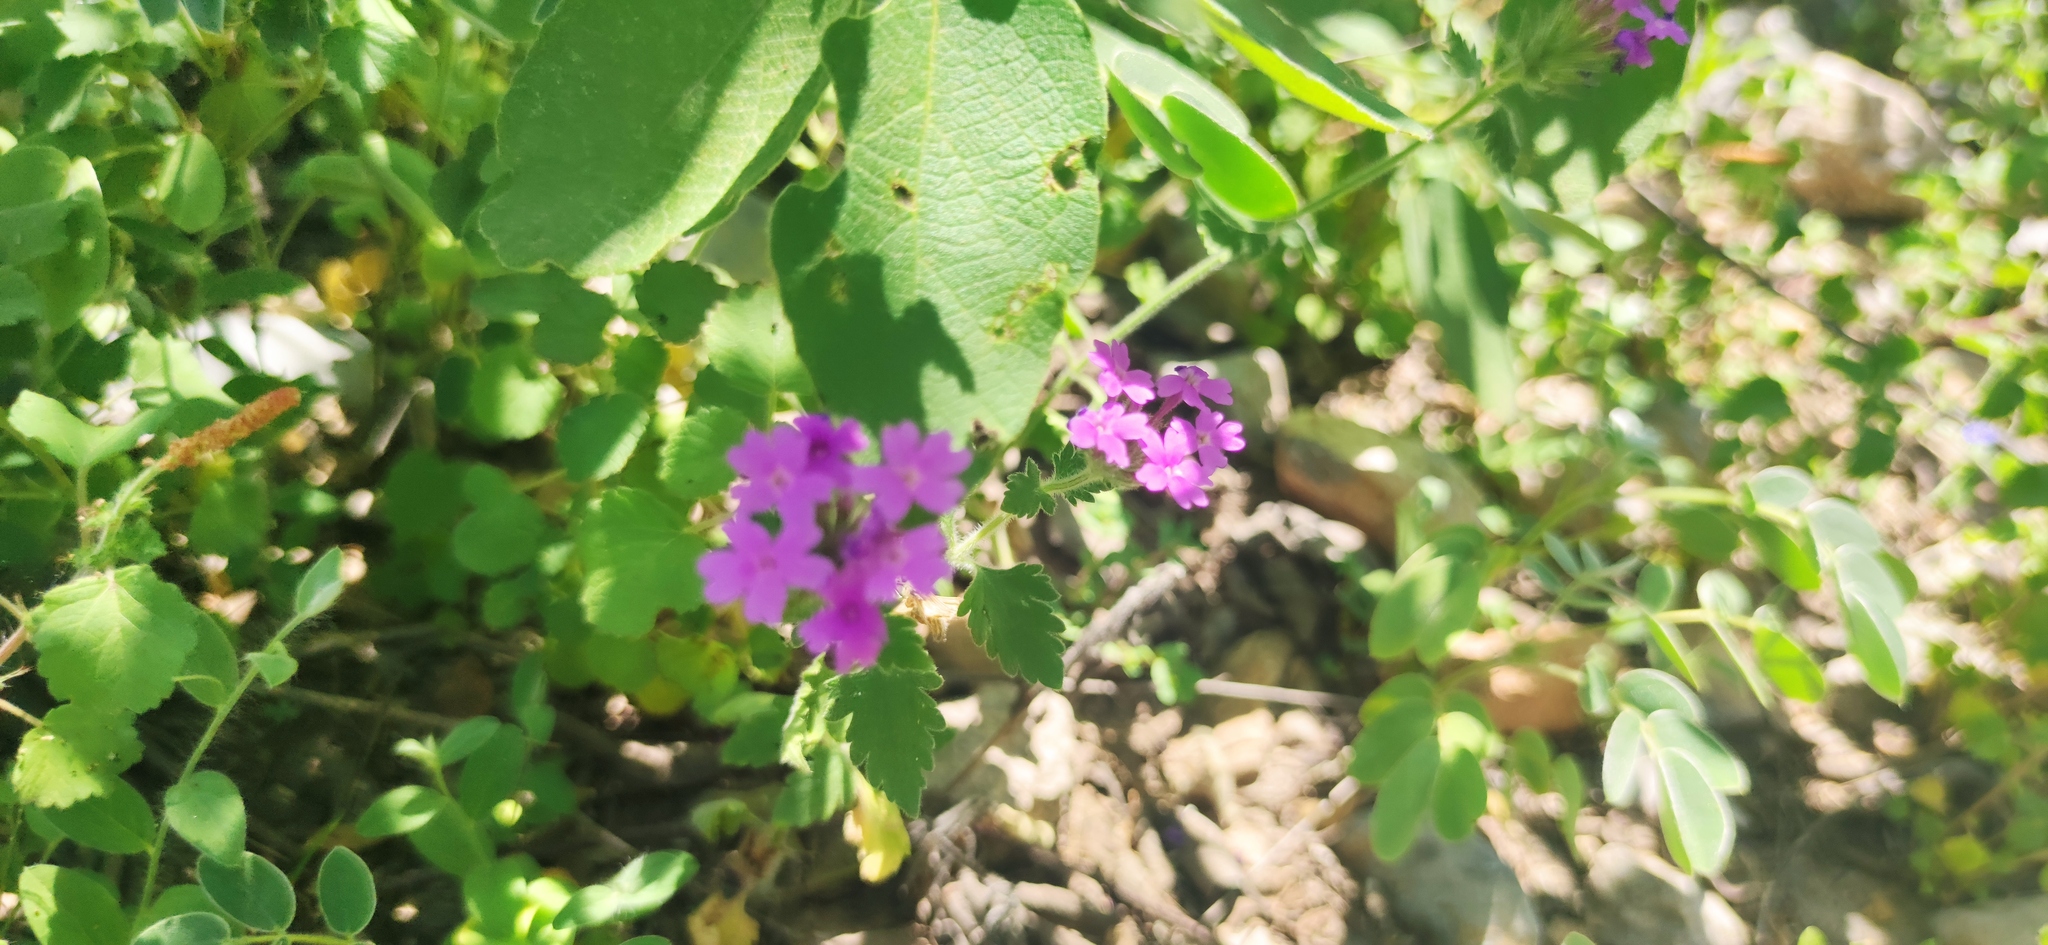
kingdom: Plantae
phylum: Tracheophyta
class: Magnoliopsida
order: Lamiales
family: Verbenaceae
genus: Verbena
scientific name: Verbena canadensis
